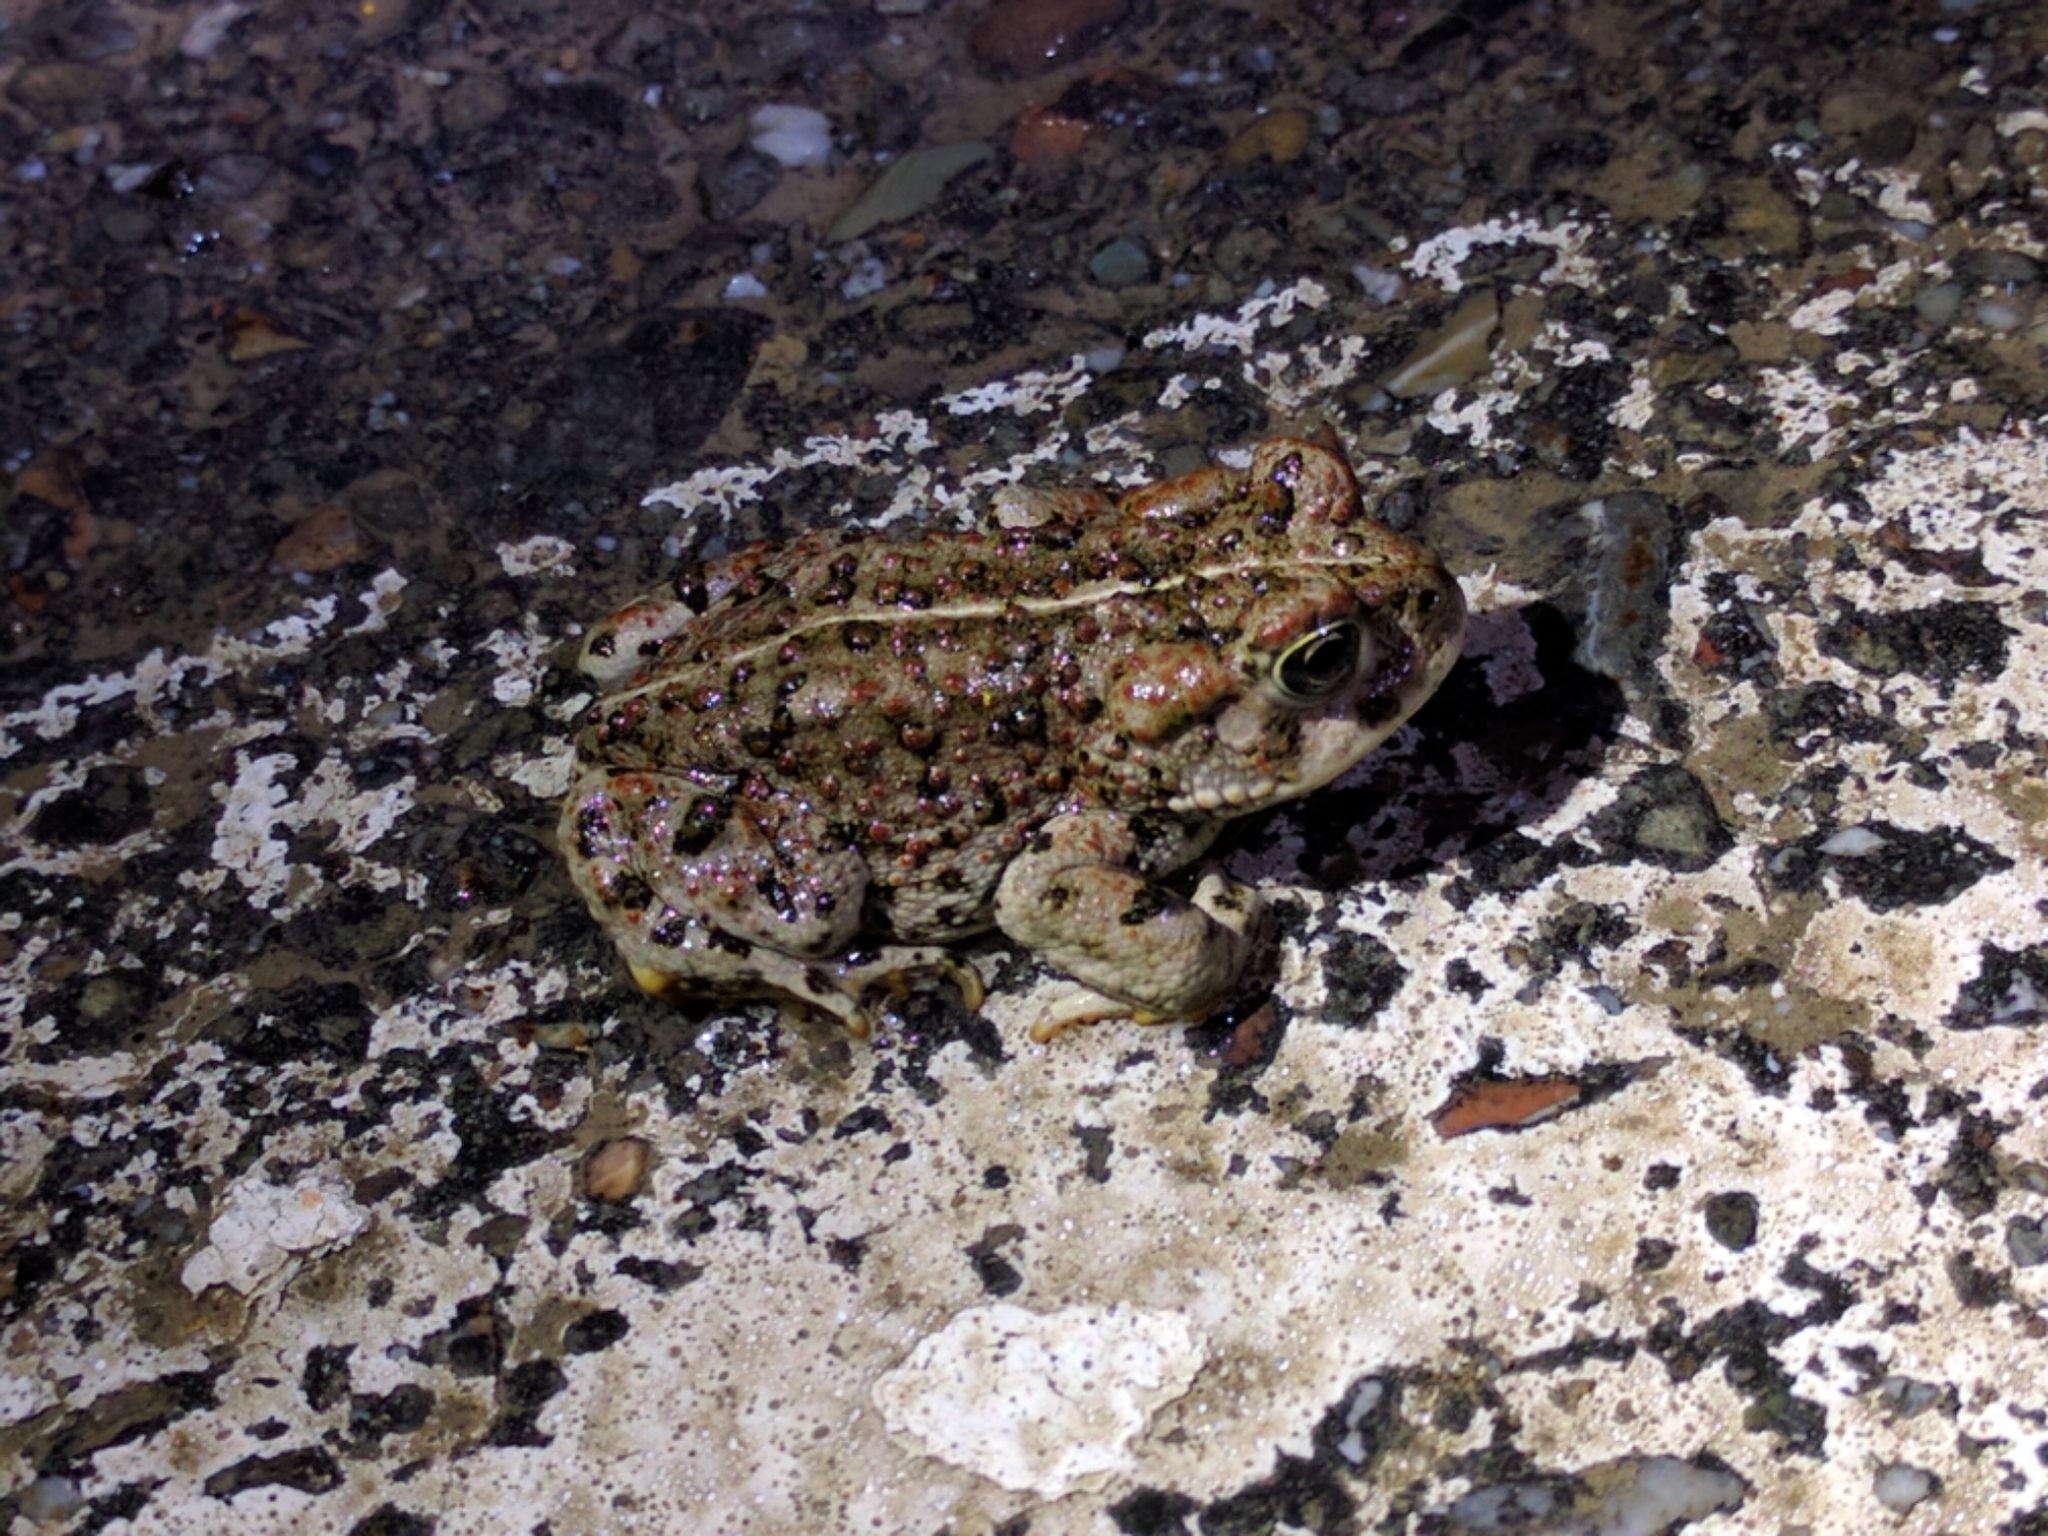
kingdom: Animalia
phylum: Chordata
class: Amphibia
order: Anura
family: Bufonidae
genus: Anaxyrus
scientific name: Anaxyrus boreas
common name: Western toad
